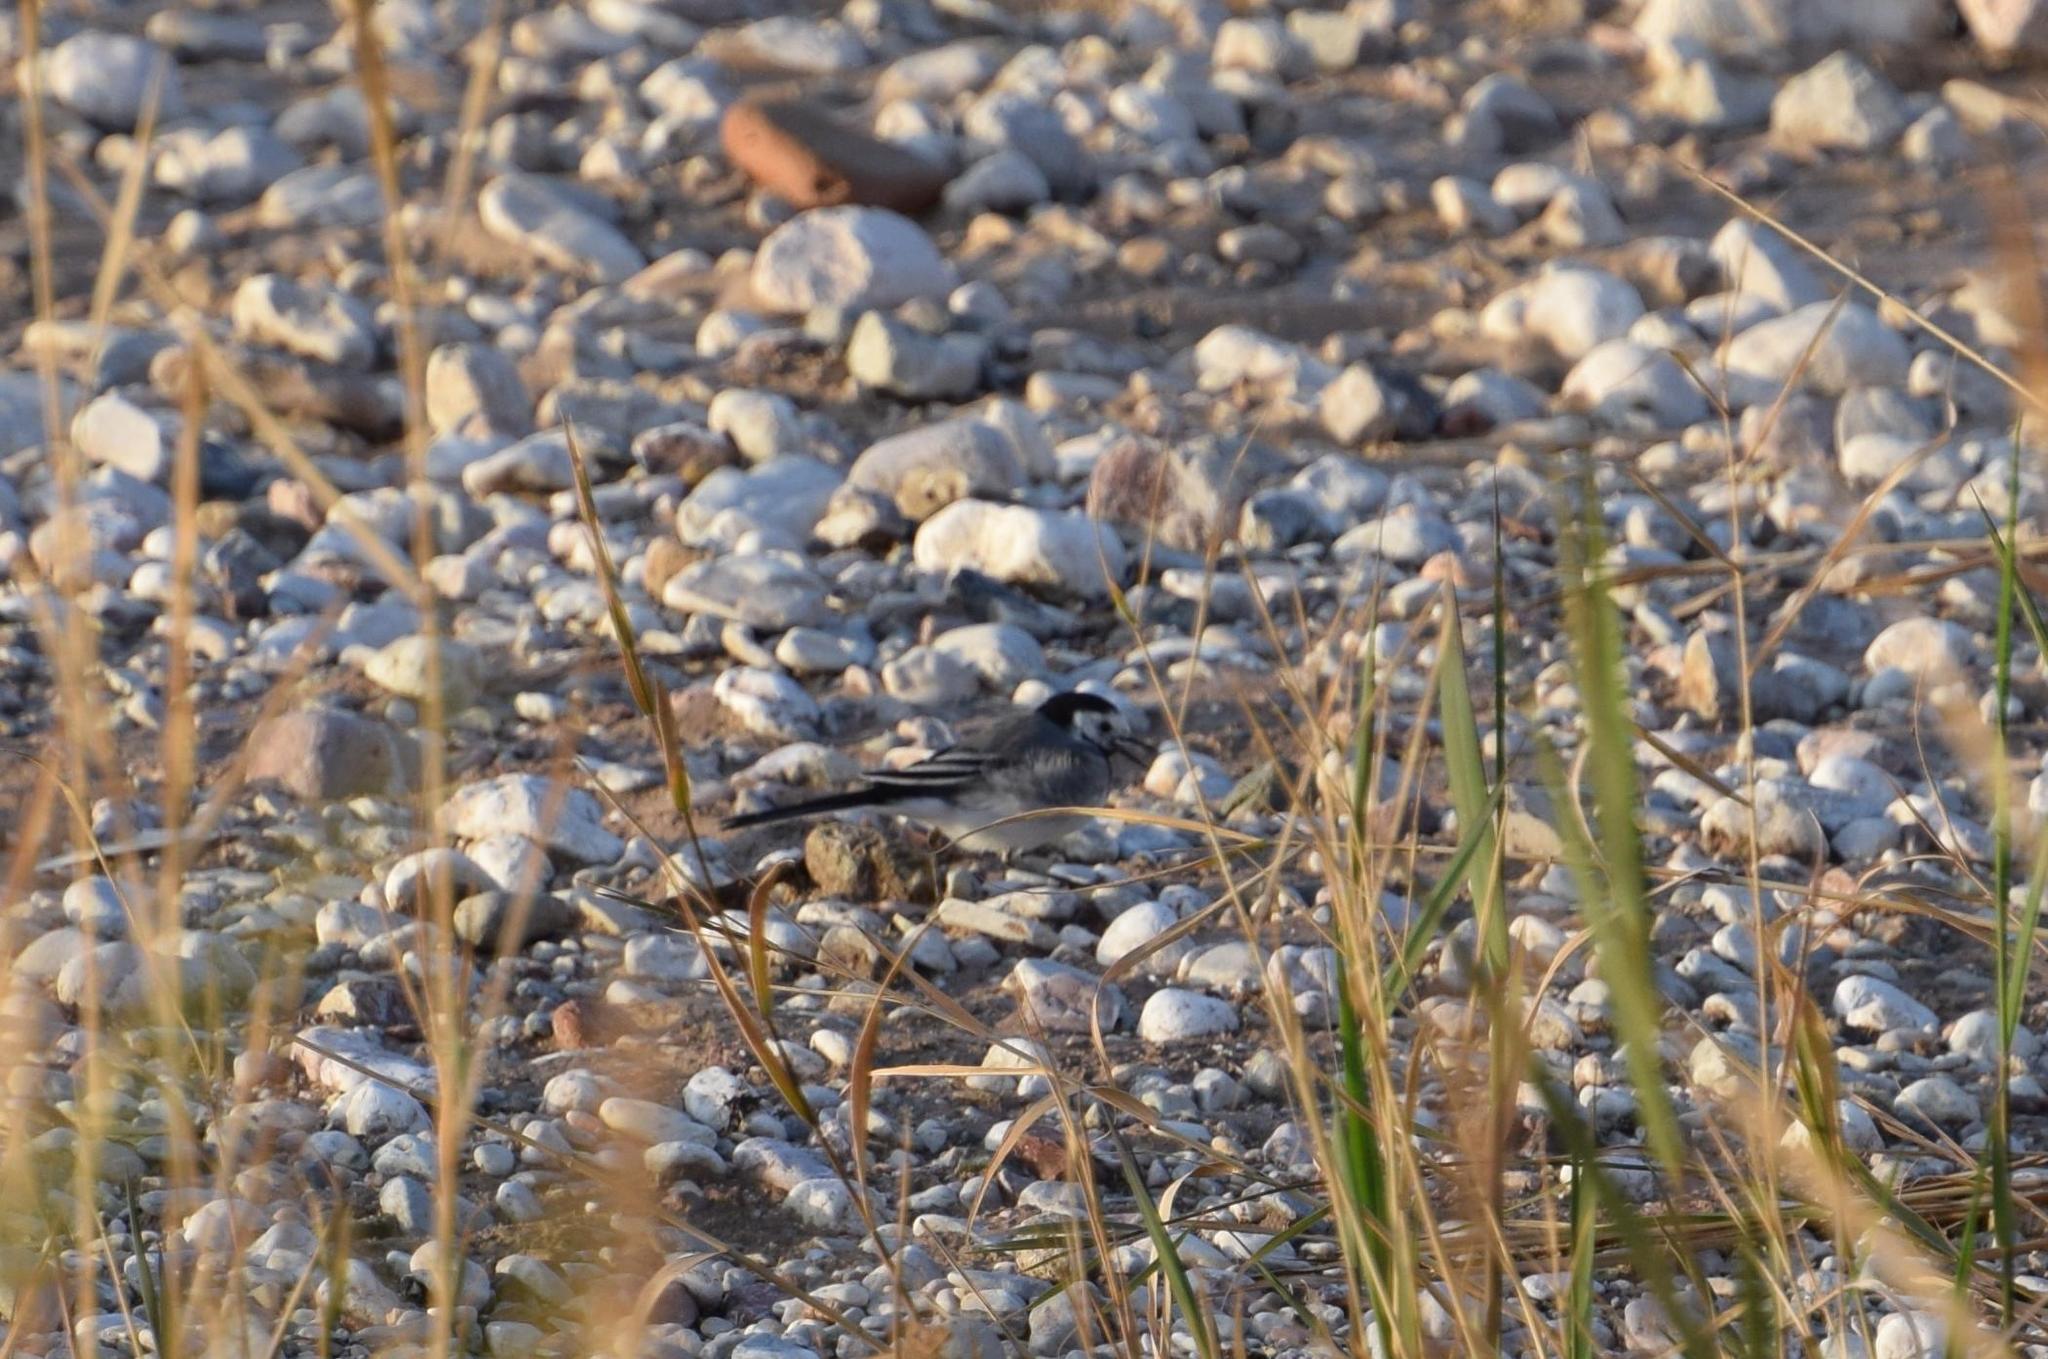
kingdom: Animalia
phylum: Chordata
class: Aves
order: Passeriformes
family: Motacillidae
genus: Motacilla
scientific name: Motacilla alba
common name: White wagtail
